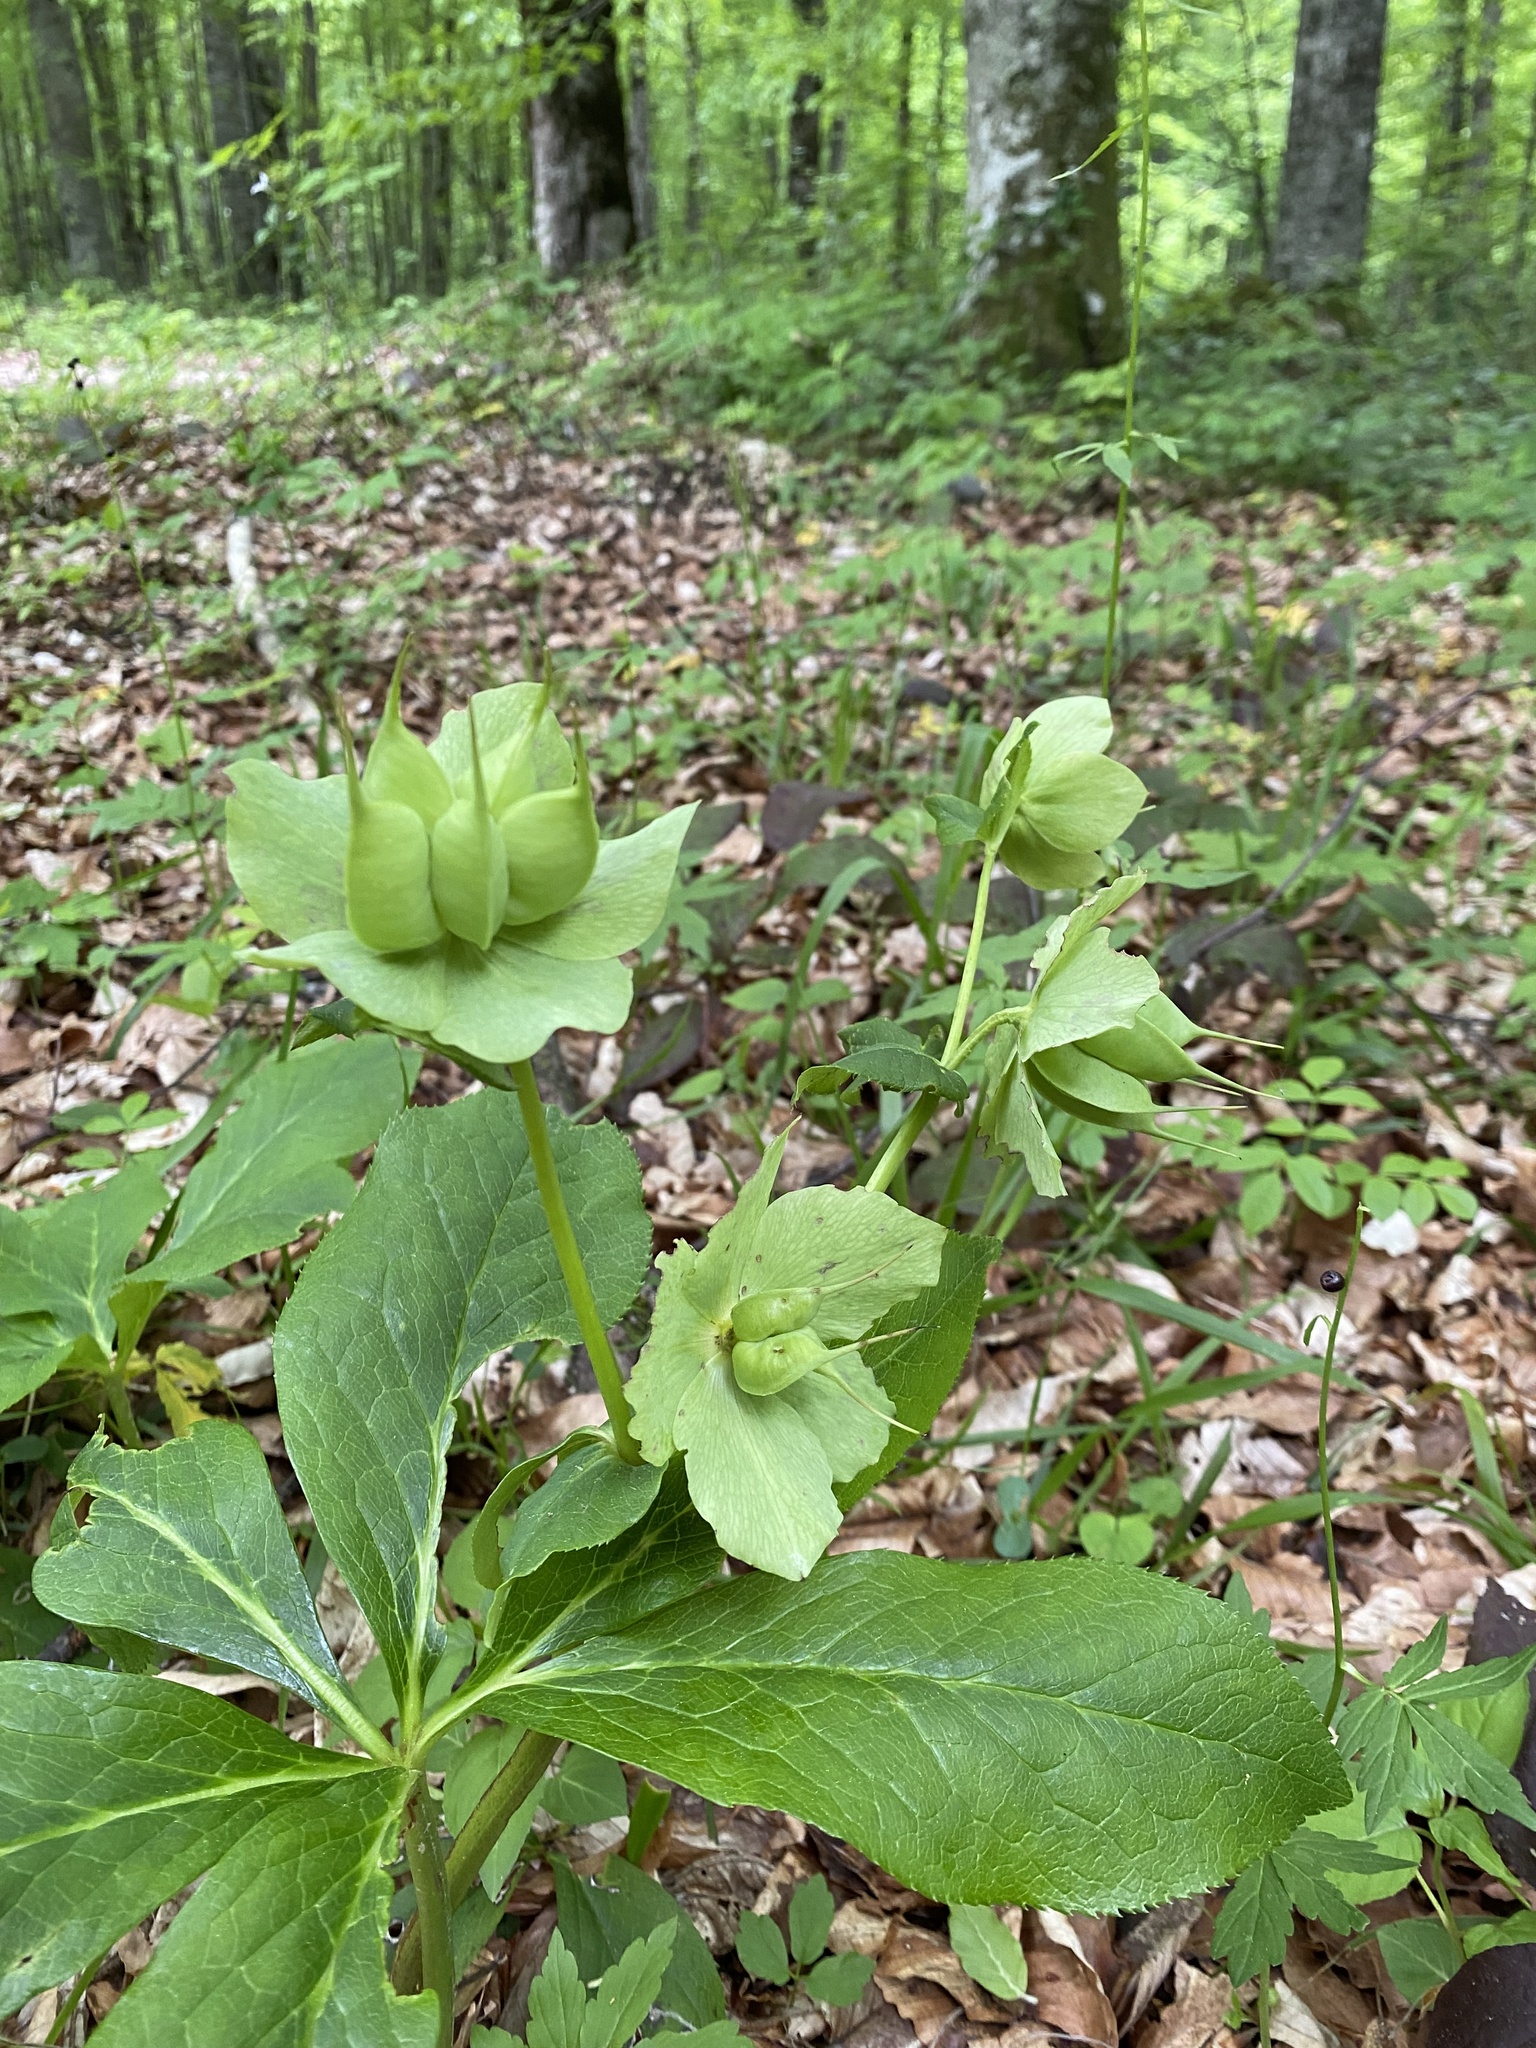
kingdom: Plantae
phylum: Tracheophyta
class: Magnoliopsida
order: Ranunculales
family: Ranunculaceae
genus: Helleborus
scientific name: Helleborus orientalis
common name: Lenten-rose
